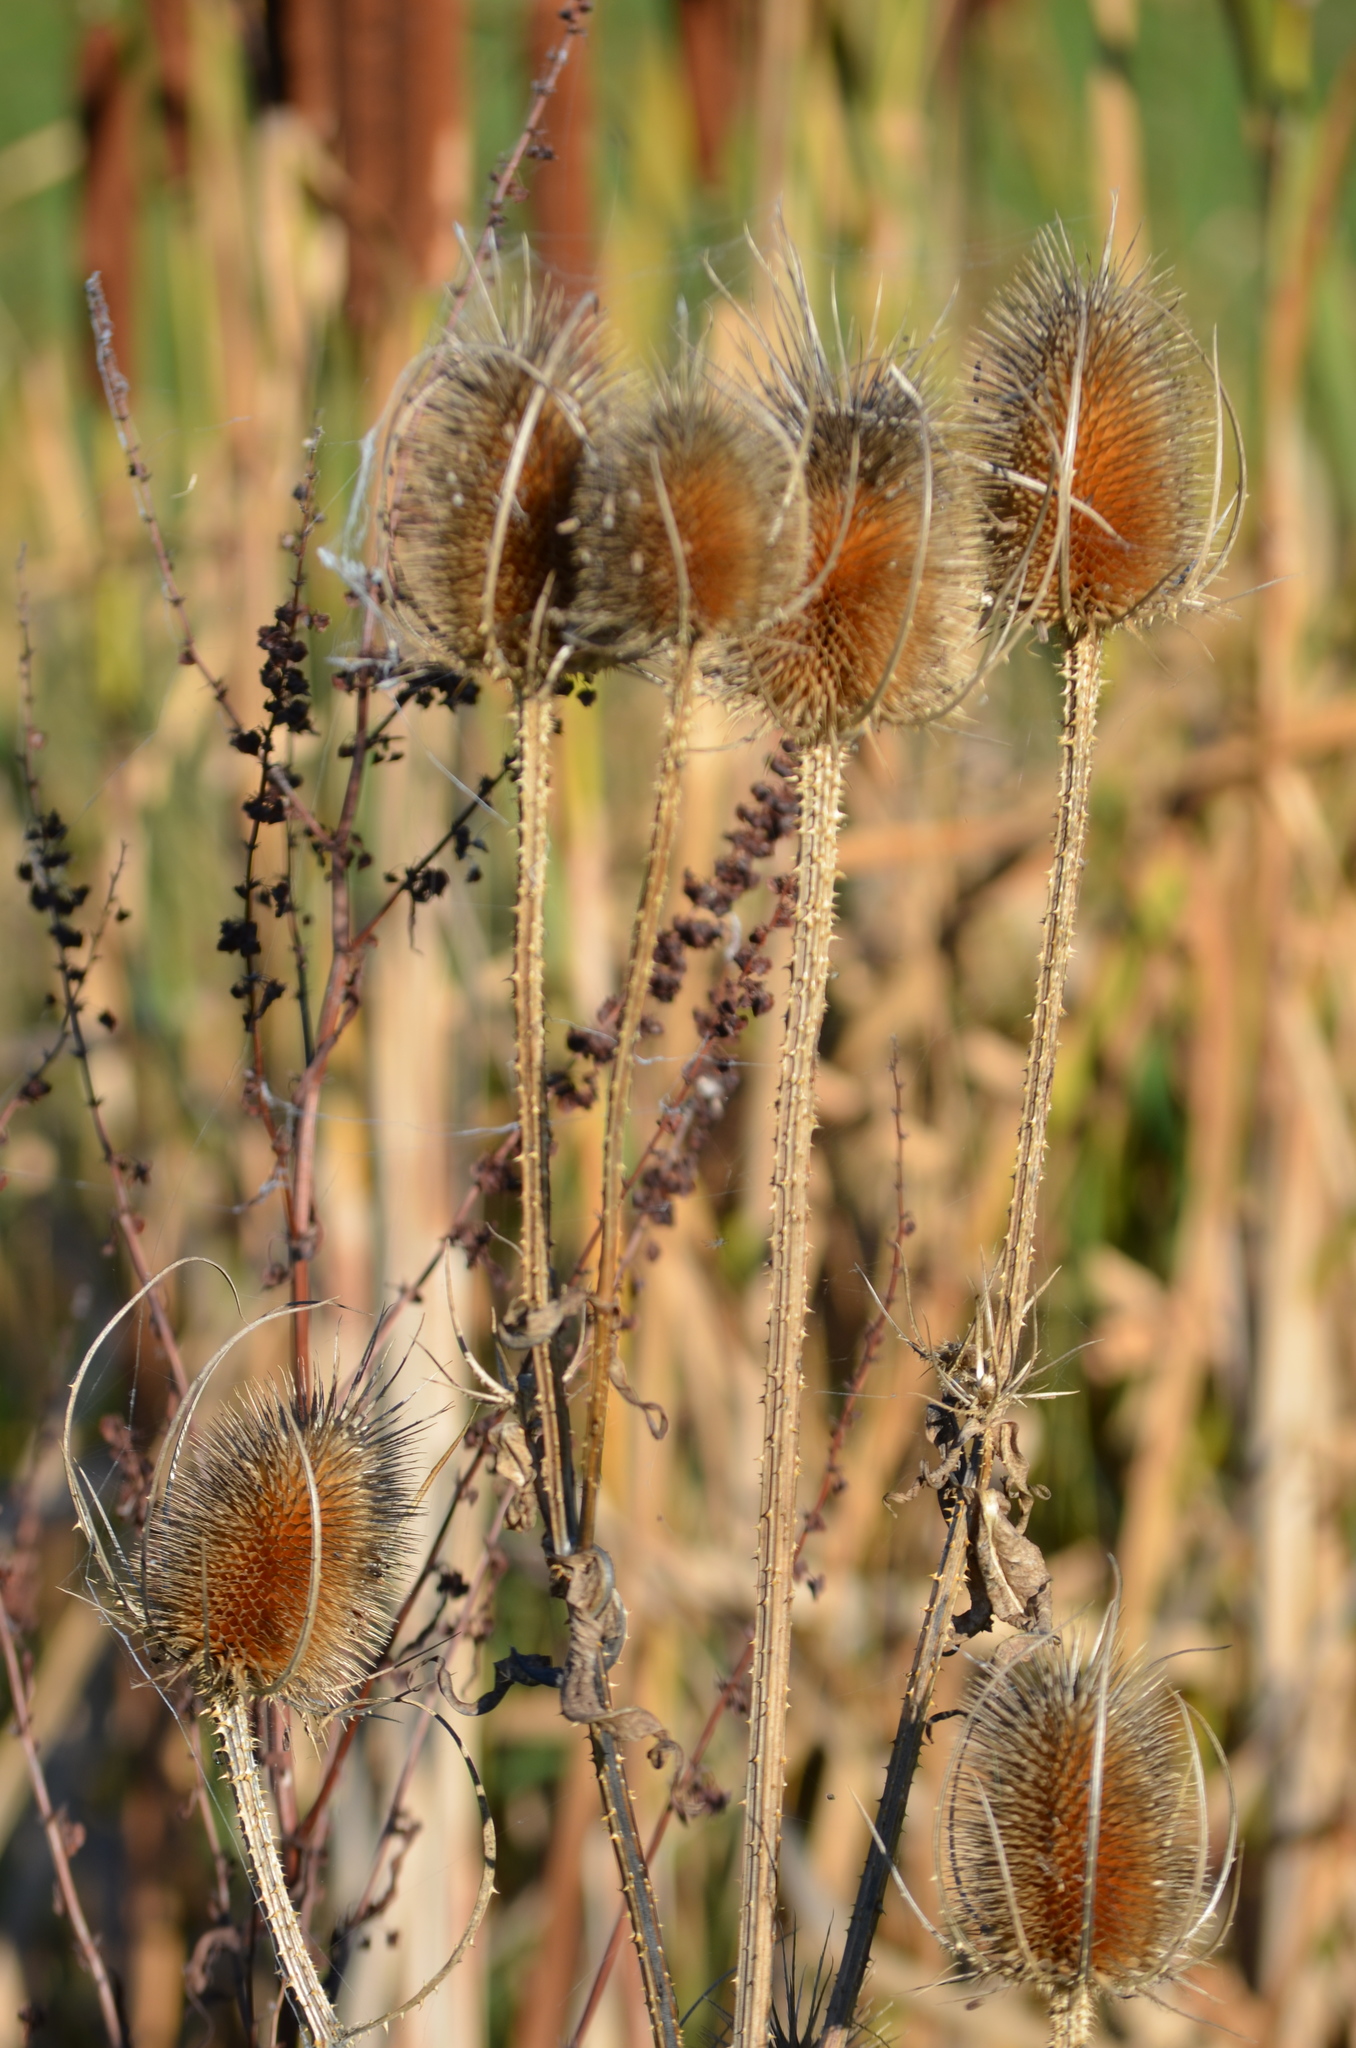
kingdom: Plantae
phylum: Tracheophyta
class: Magnoliopsida
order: Dipsacales
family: Caprifoliaceae
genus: Dipsacus
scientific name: Dipsacus fullonum
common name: Teasel
